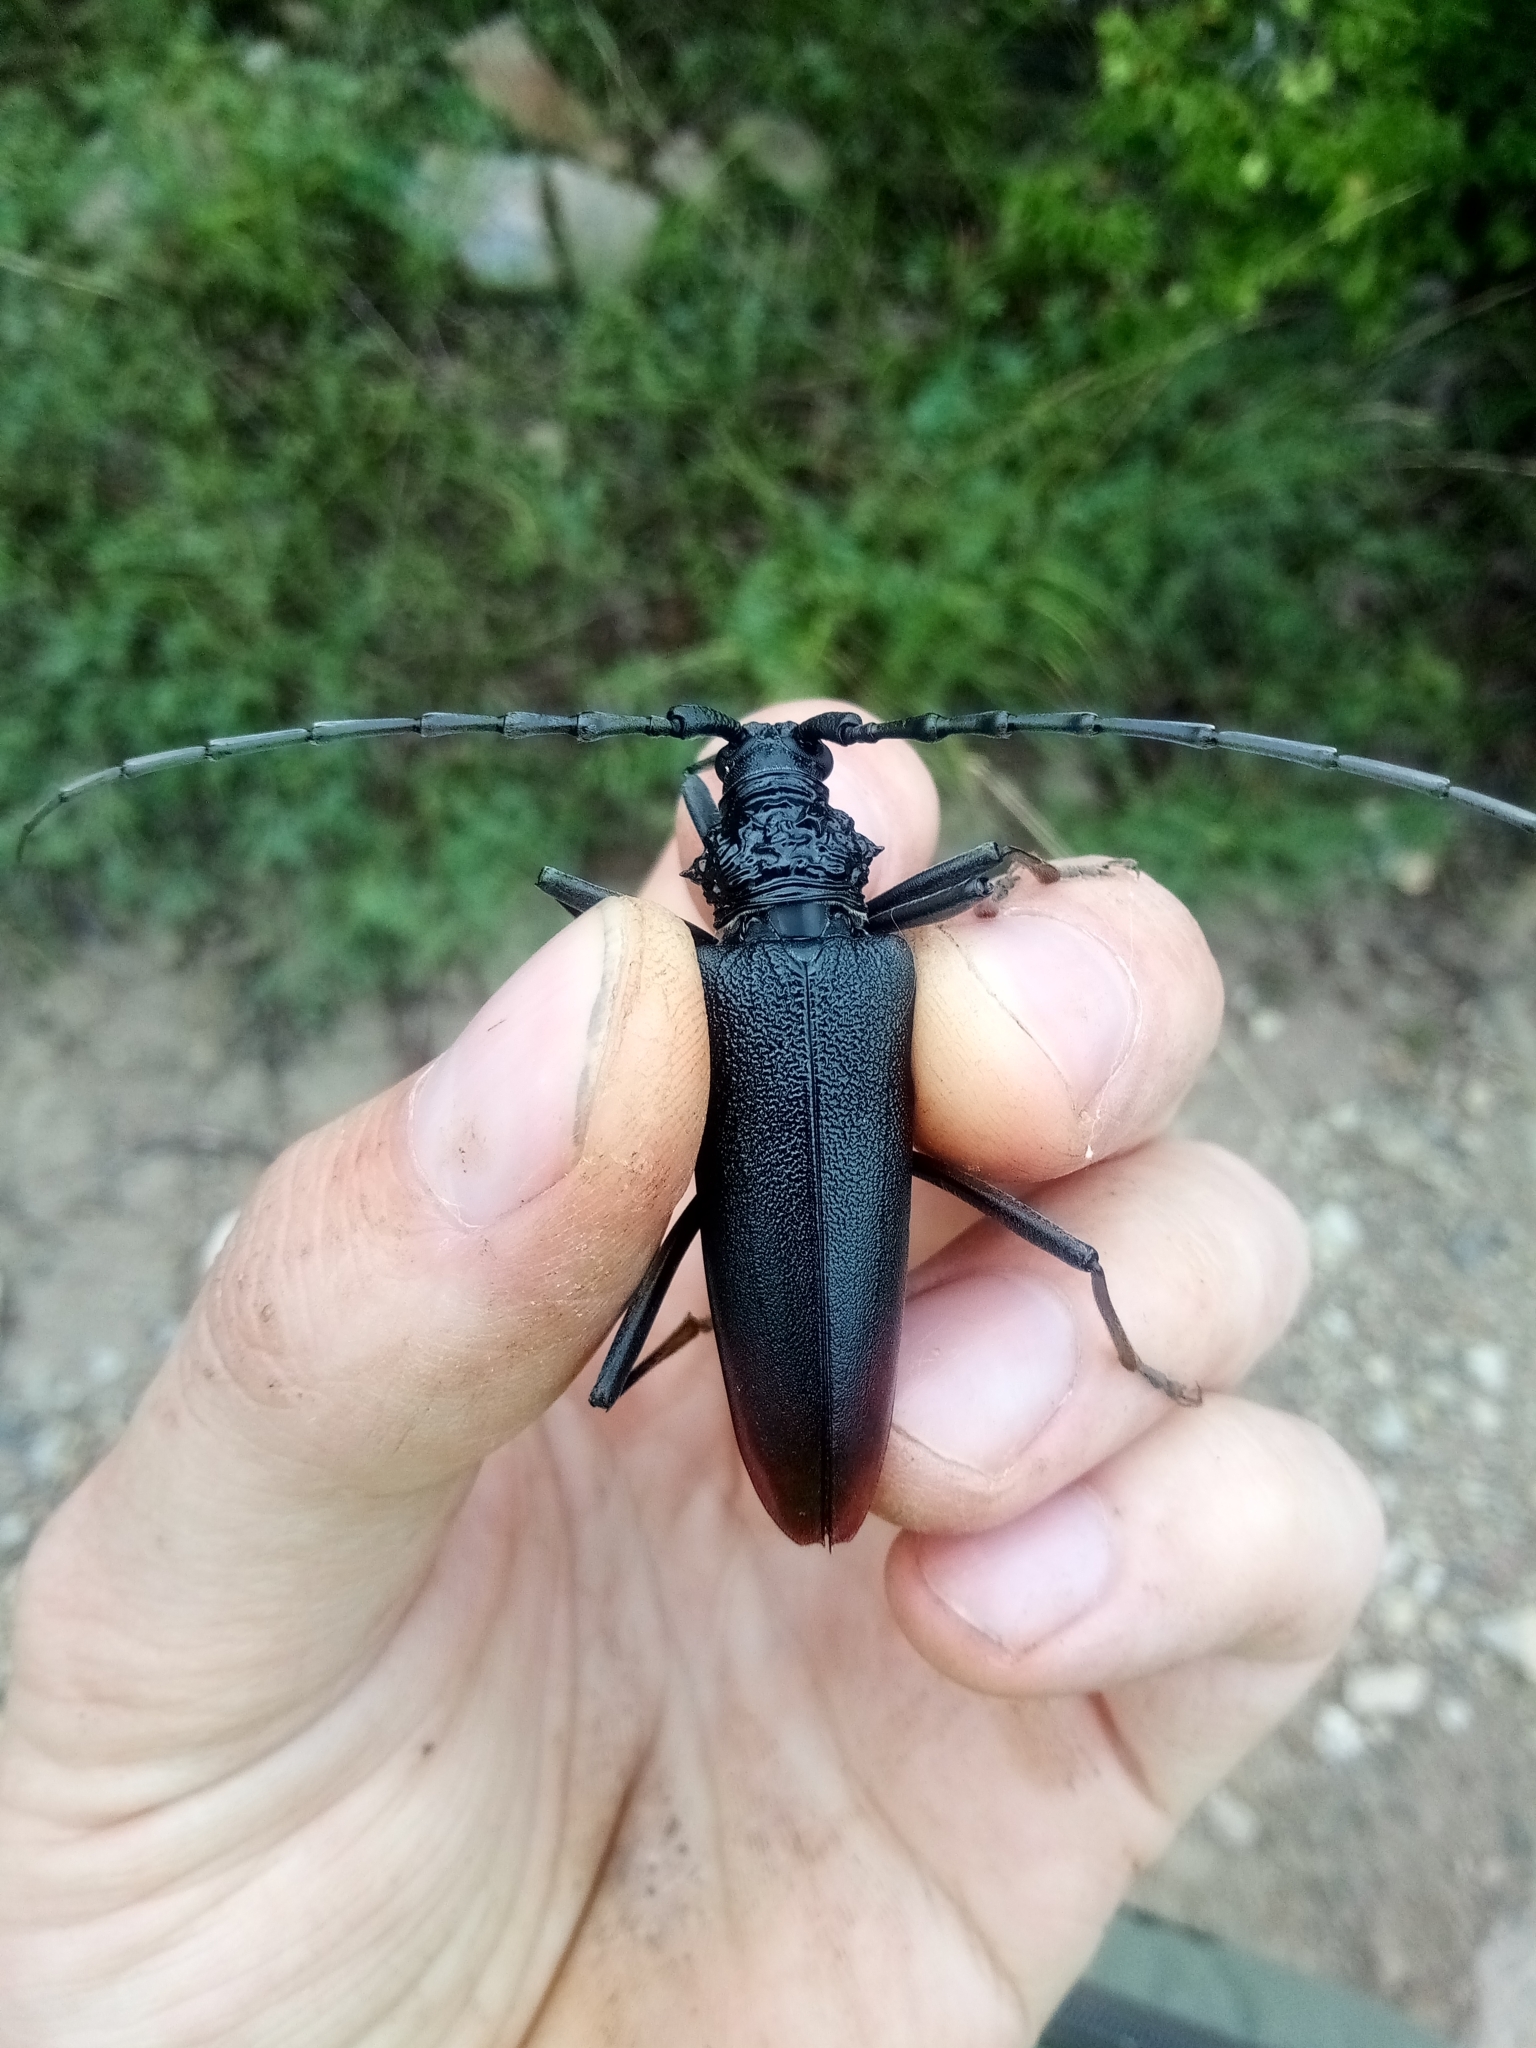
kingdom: Animalia
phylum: Arthropoda
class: Insecta
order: Coleoptera
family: Cerambycidae
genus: Cerambyx
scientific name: Cerambyx cerdo
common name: Cerambyx longicorn
